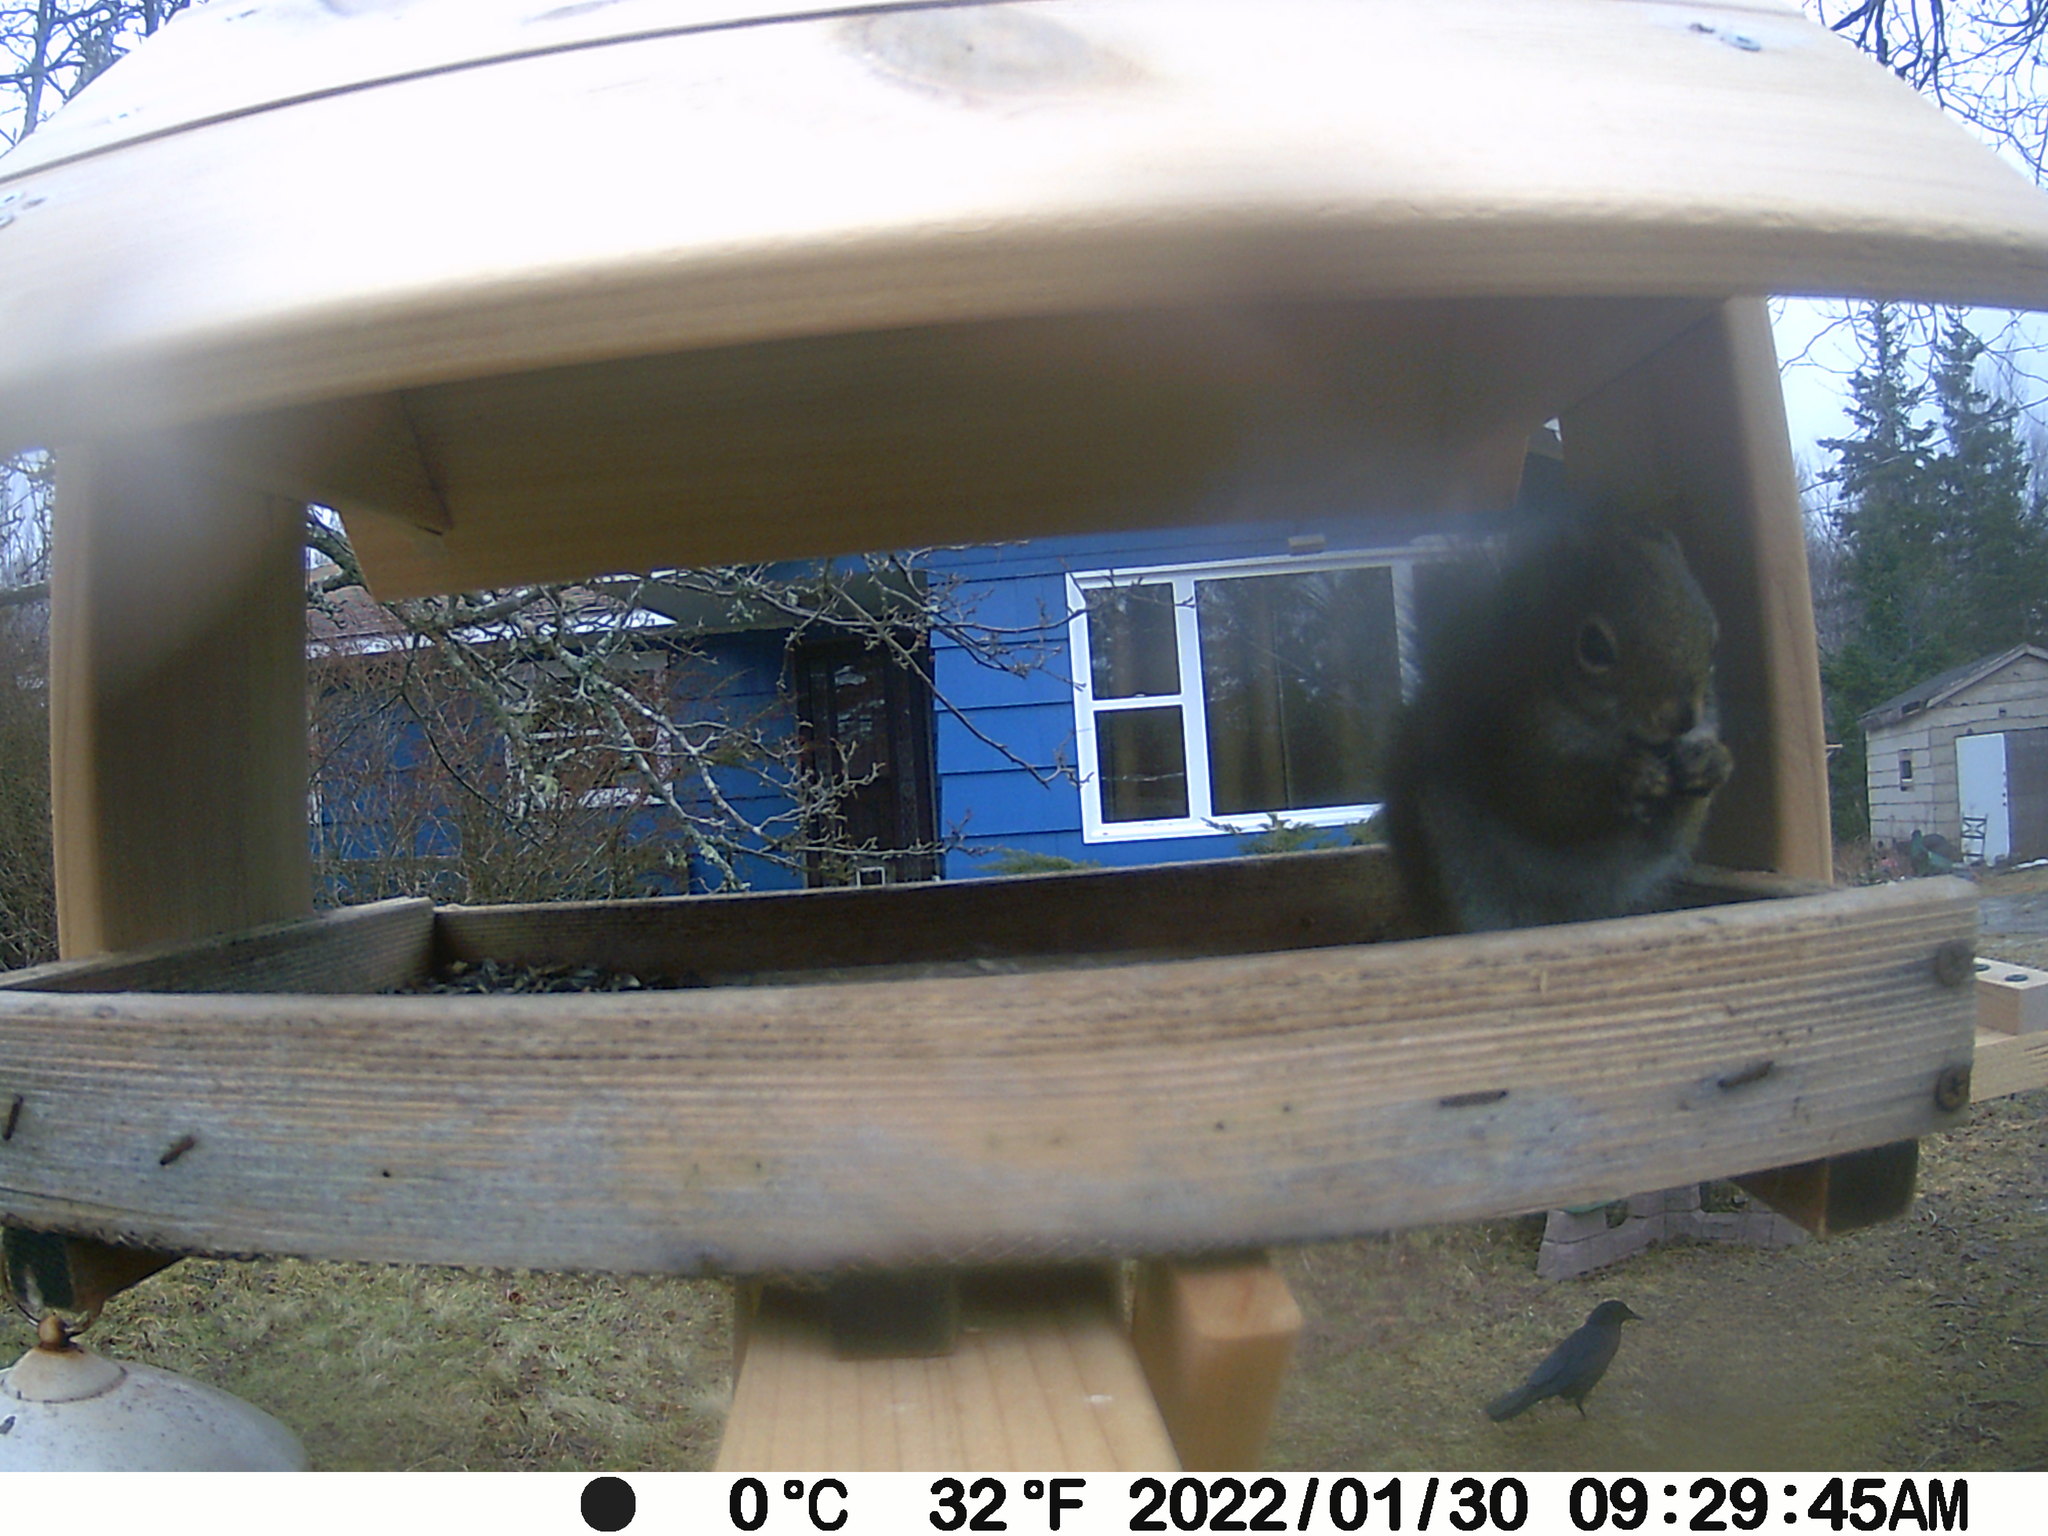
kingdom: Animalia
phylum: Chordata
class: Aves
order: Passeriformes
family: Corvidae
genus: Corvus
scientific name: Corvus brachyrhynchos
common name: American crow
